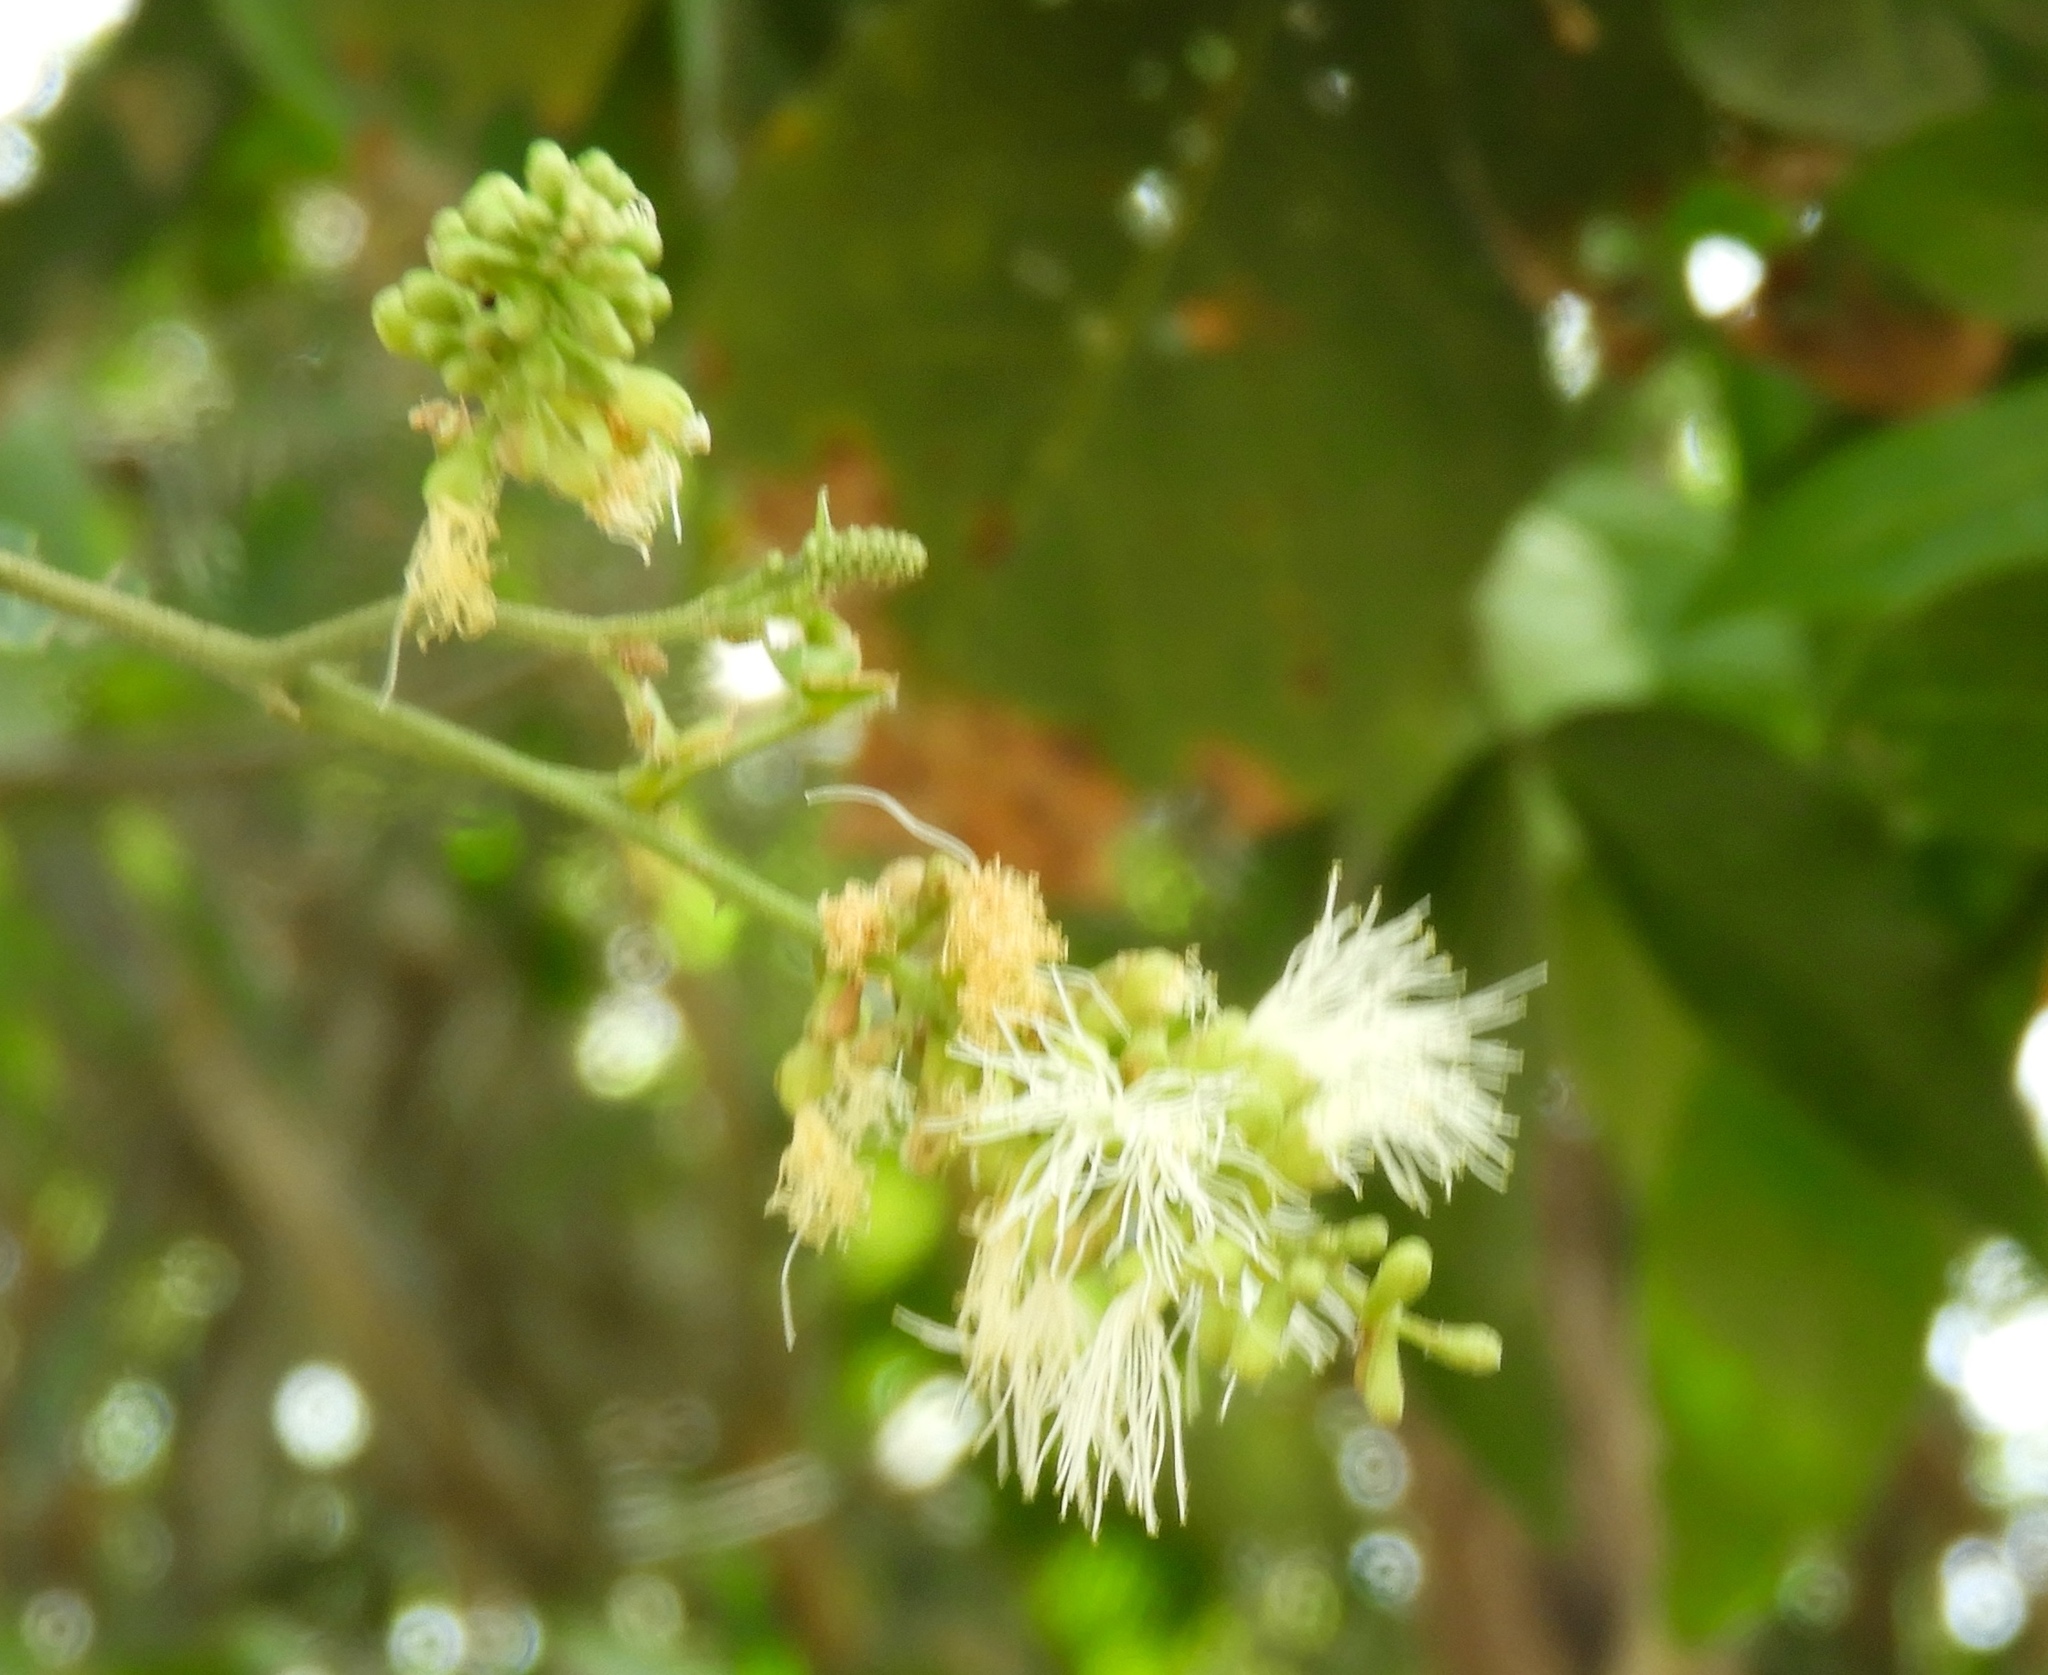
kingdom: Plantae
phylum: Tracheophyta
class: Magnoliopsida
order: Fabales
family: Fabaceae
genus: Pithecellobium
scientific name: Pithecellobium lanceolatum
